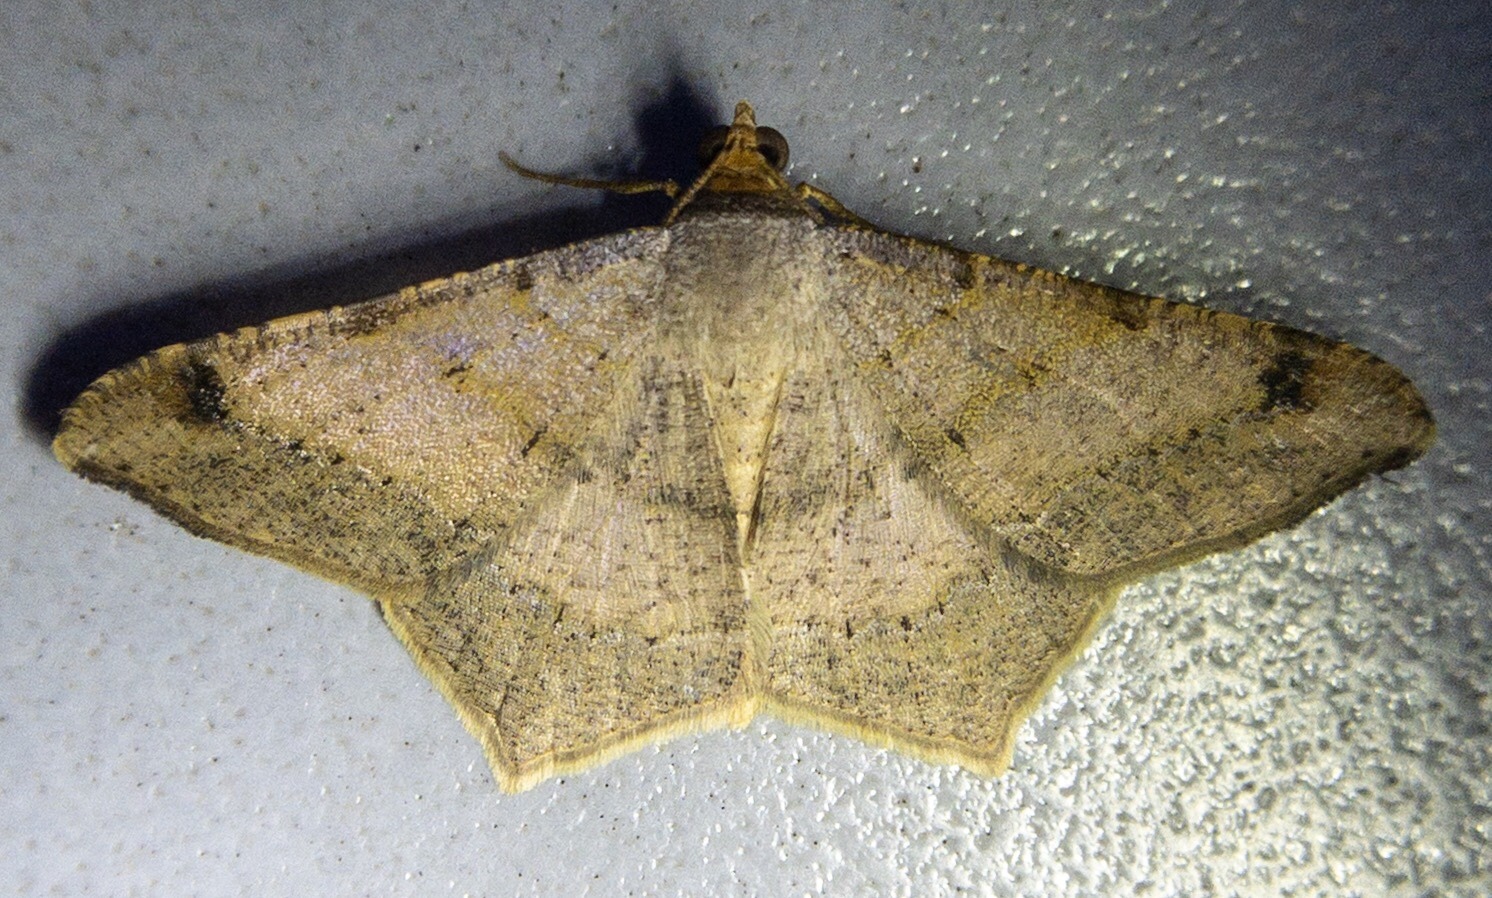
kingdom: Animalia
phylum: Arthropoda
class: Insecta
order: Lepidoptera
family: Geometridae
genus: Macaria
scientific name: Macaria abydata
